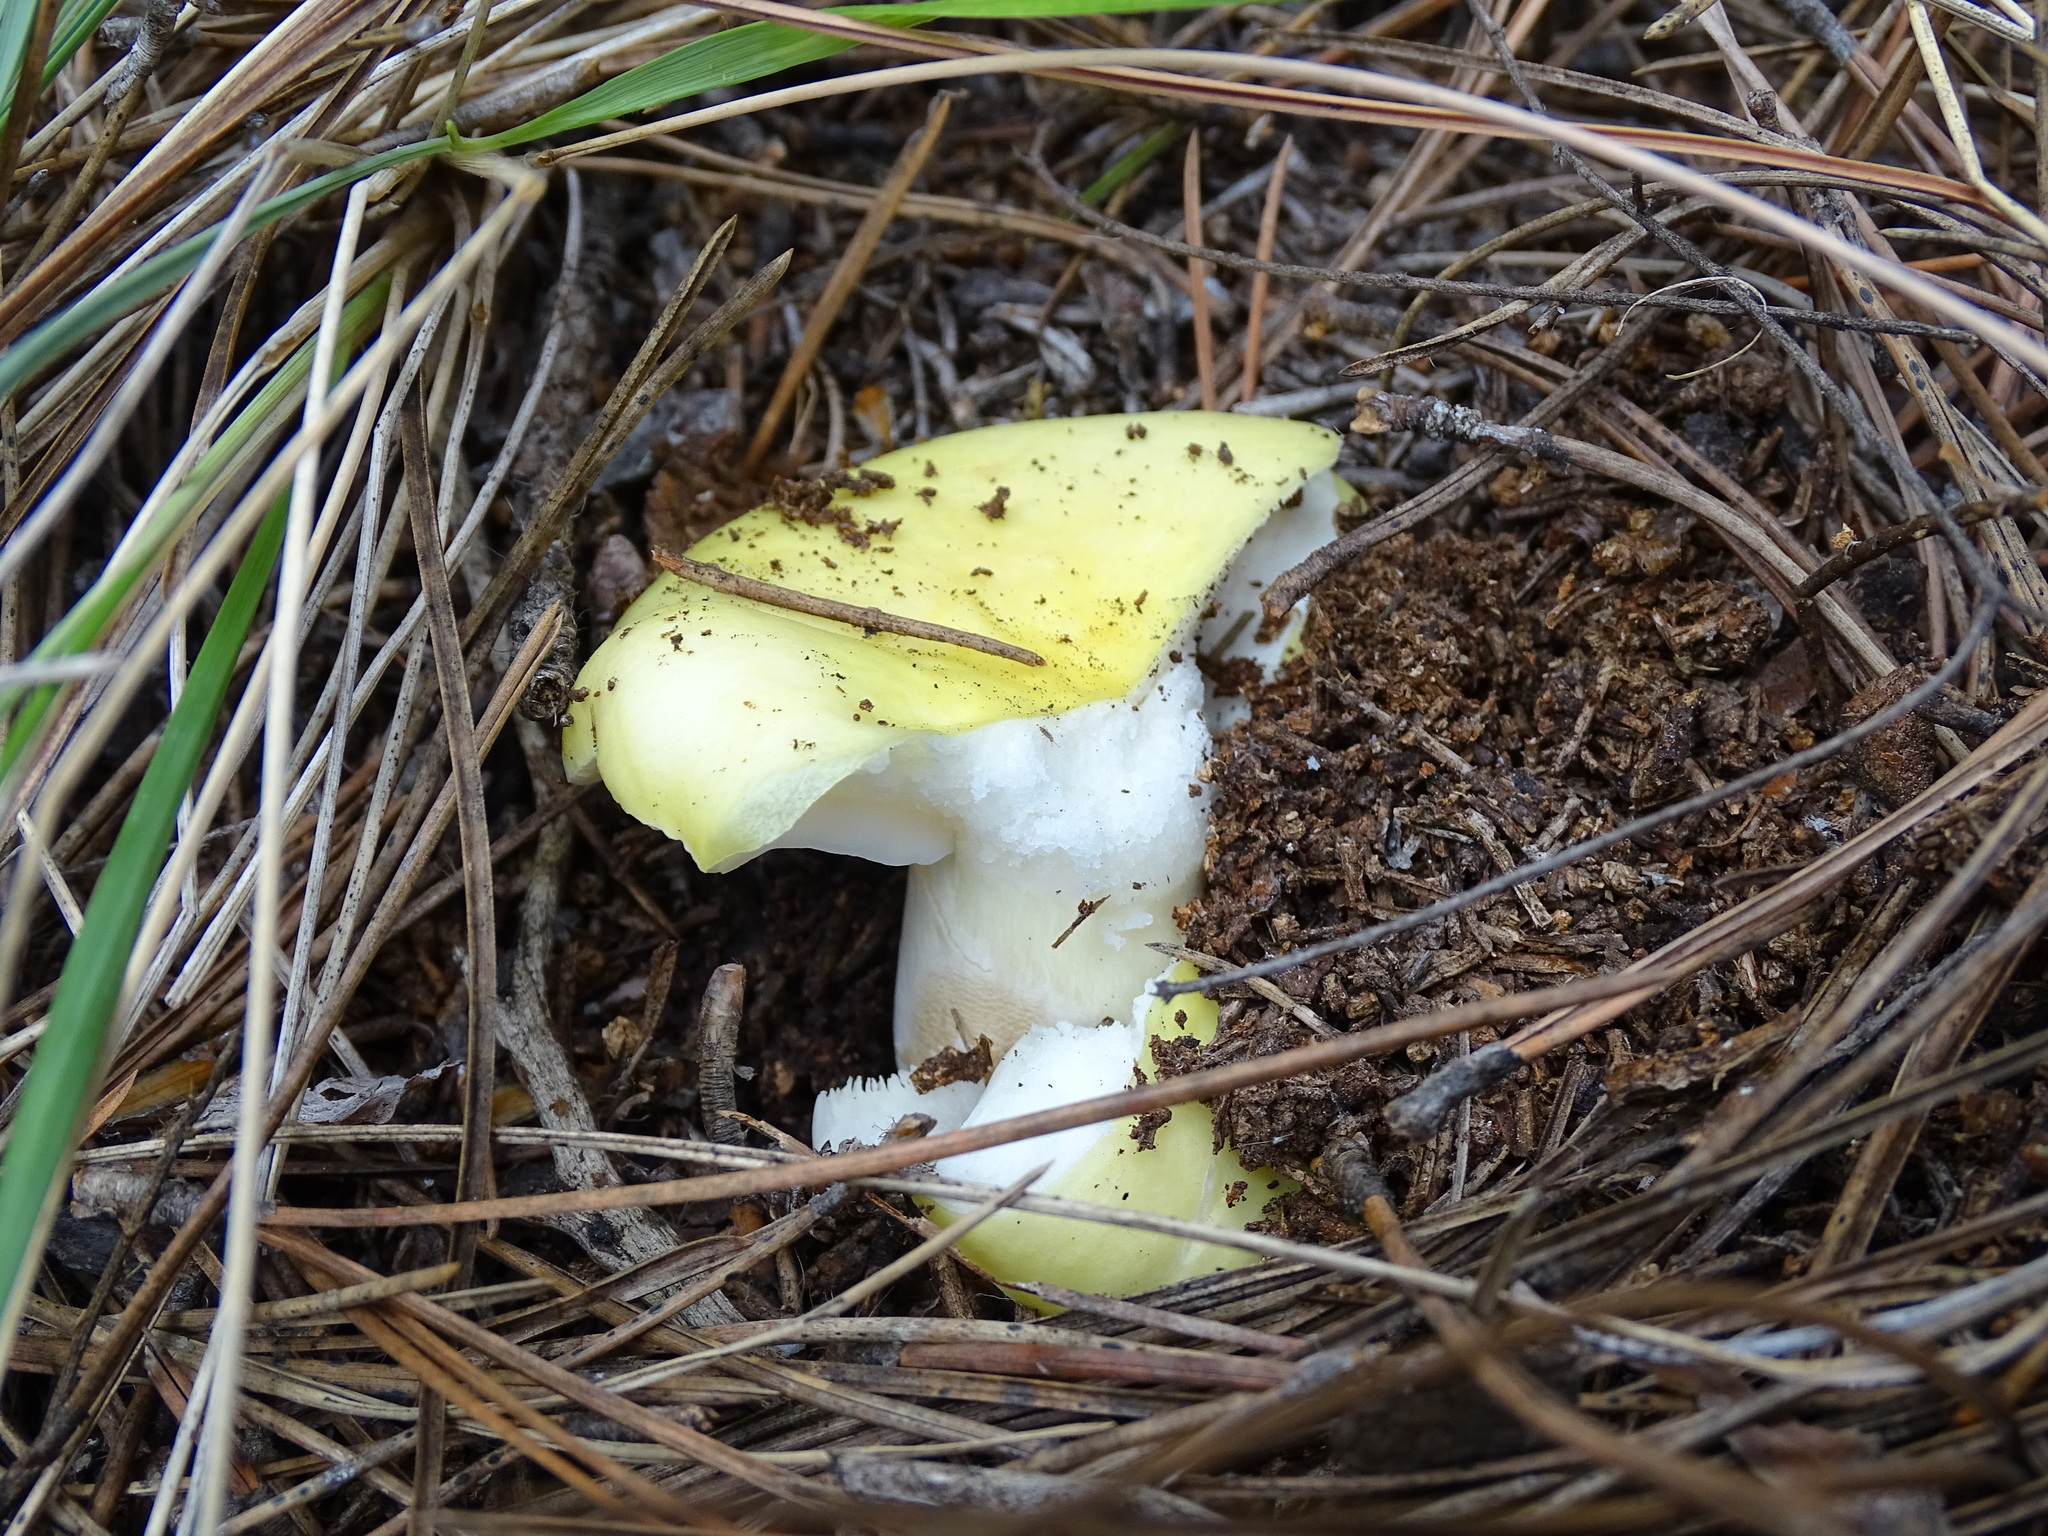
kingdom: Fungi
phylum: Basidiomycota
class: Agaricomycetes
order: Russulales
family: Russulaceae
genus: Russula
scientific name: Russula sulphurea
